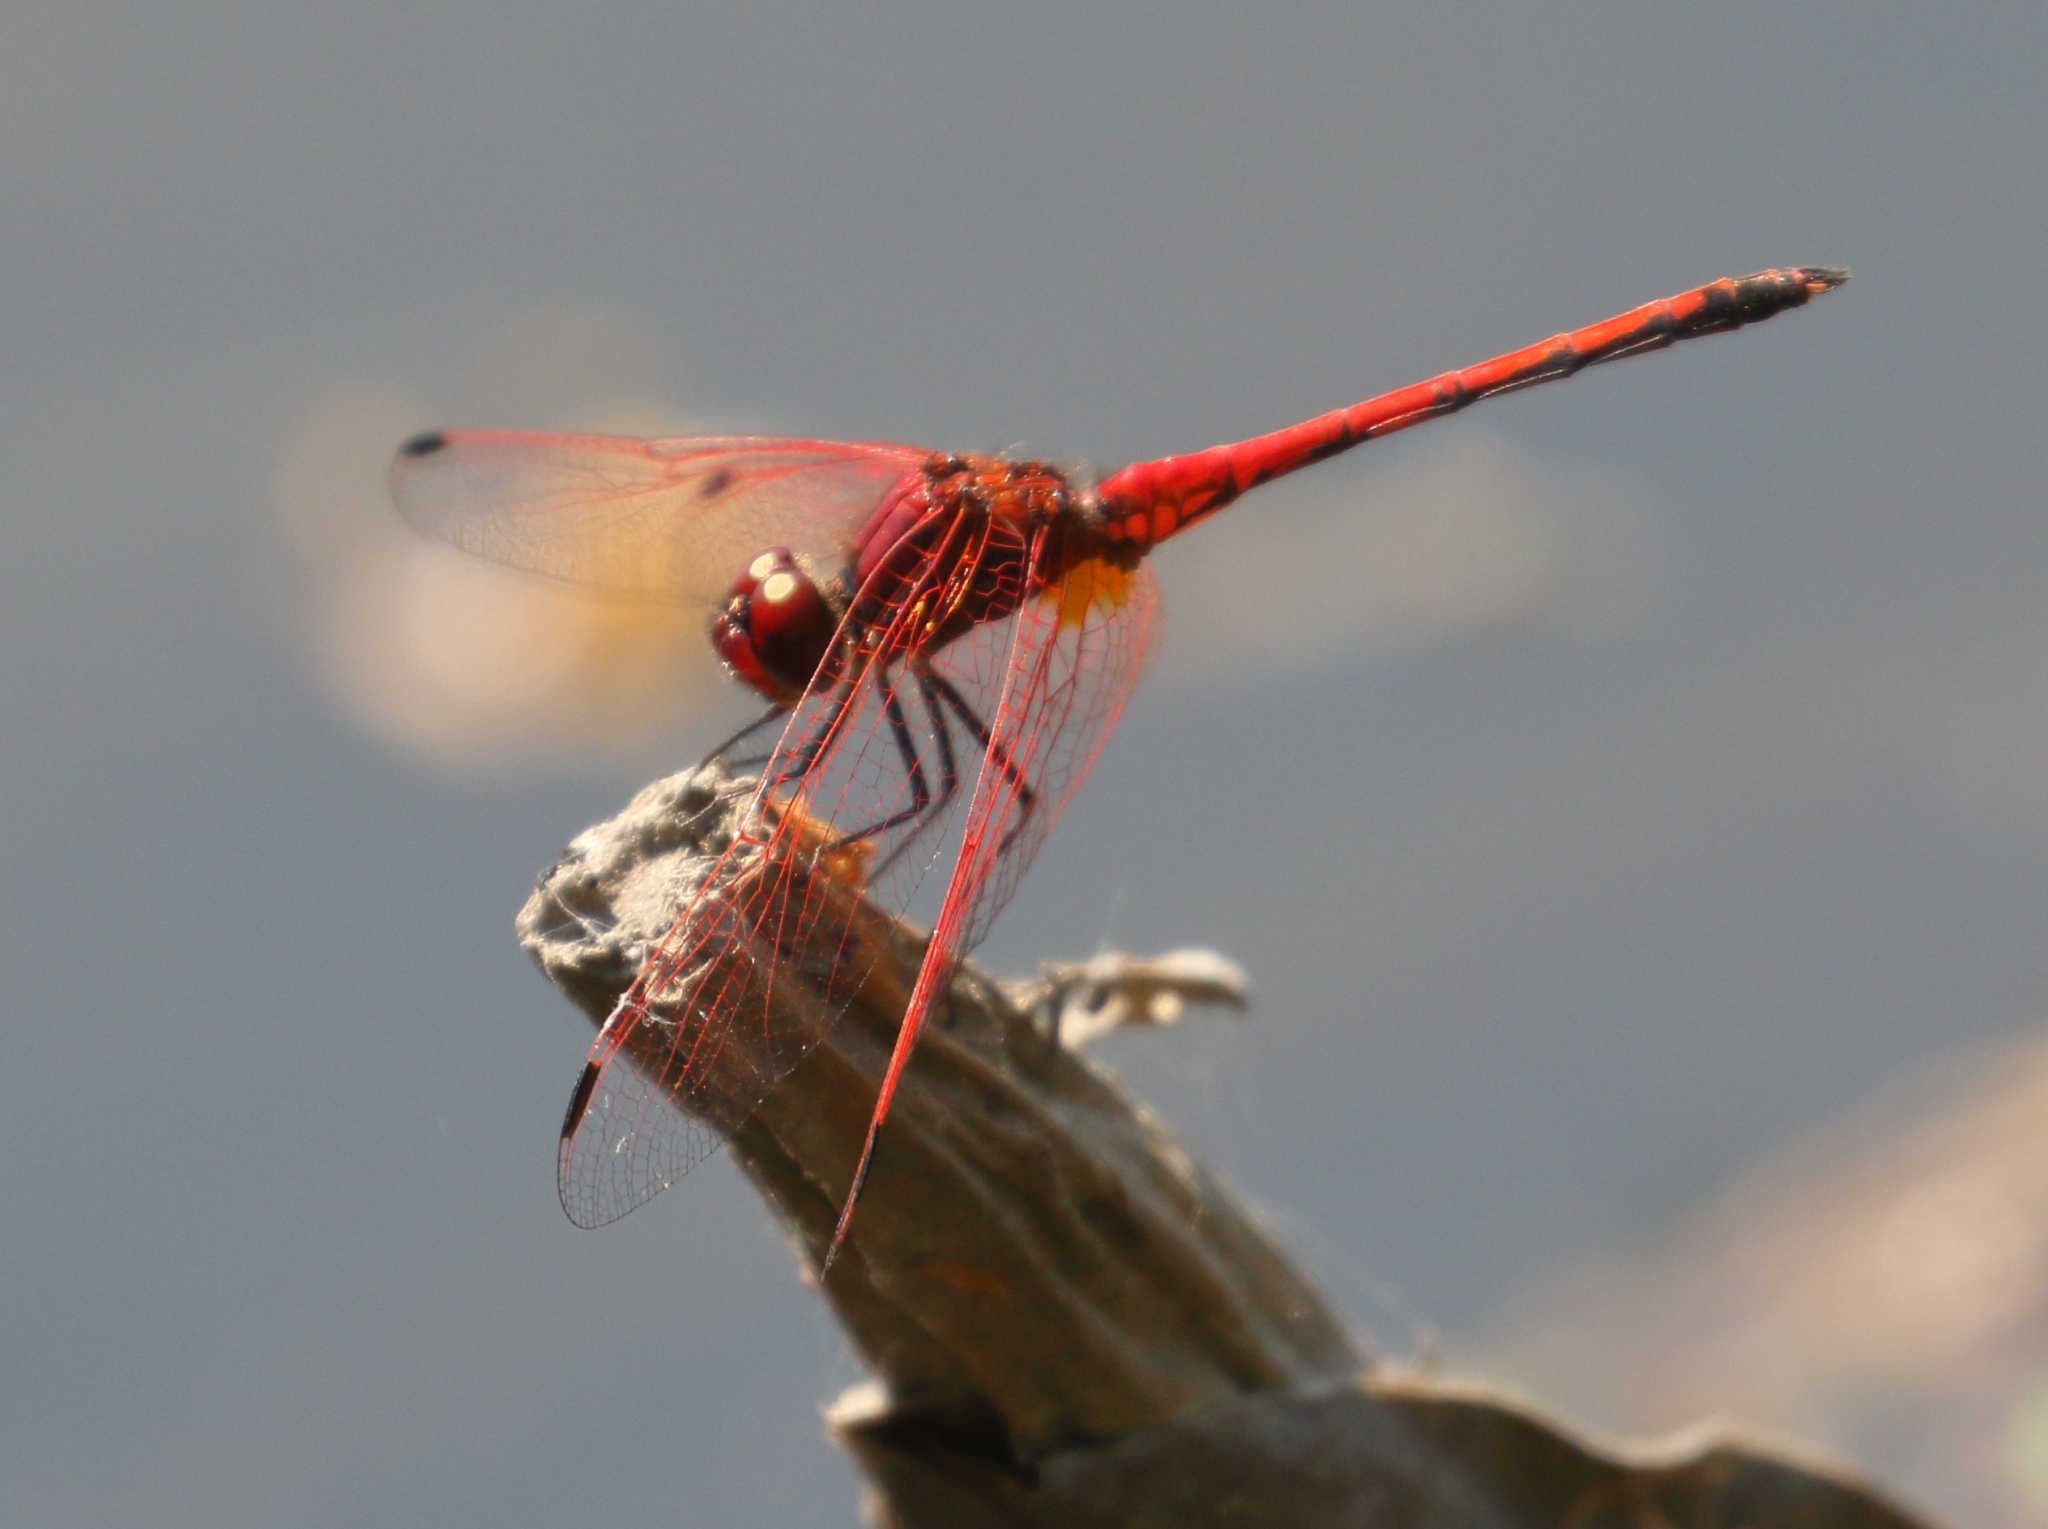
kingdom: Animalia
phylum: Arthropoda
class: Insecta
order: Odonata
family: Libellulidae
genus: Trithemis
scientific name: Trithemis arteriosa
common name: Red-veined dropwing
